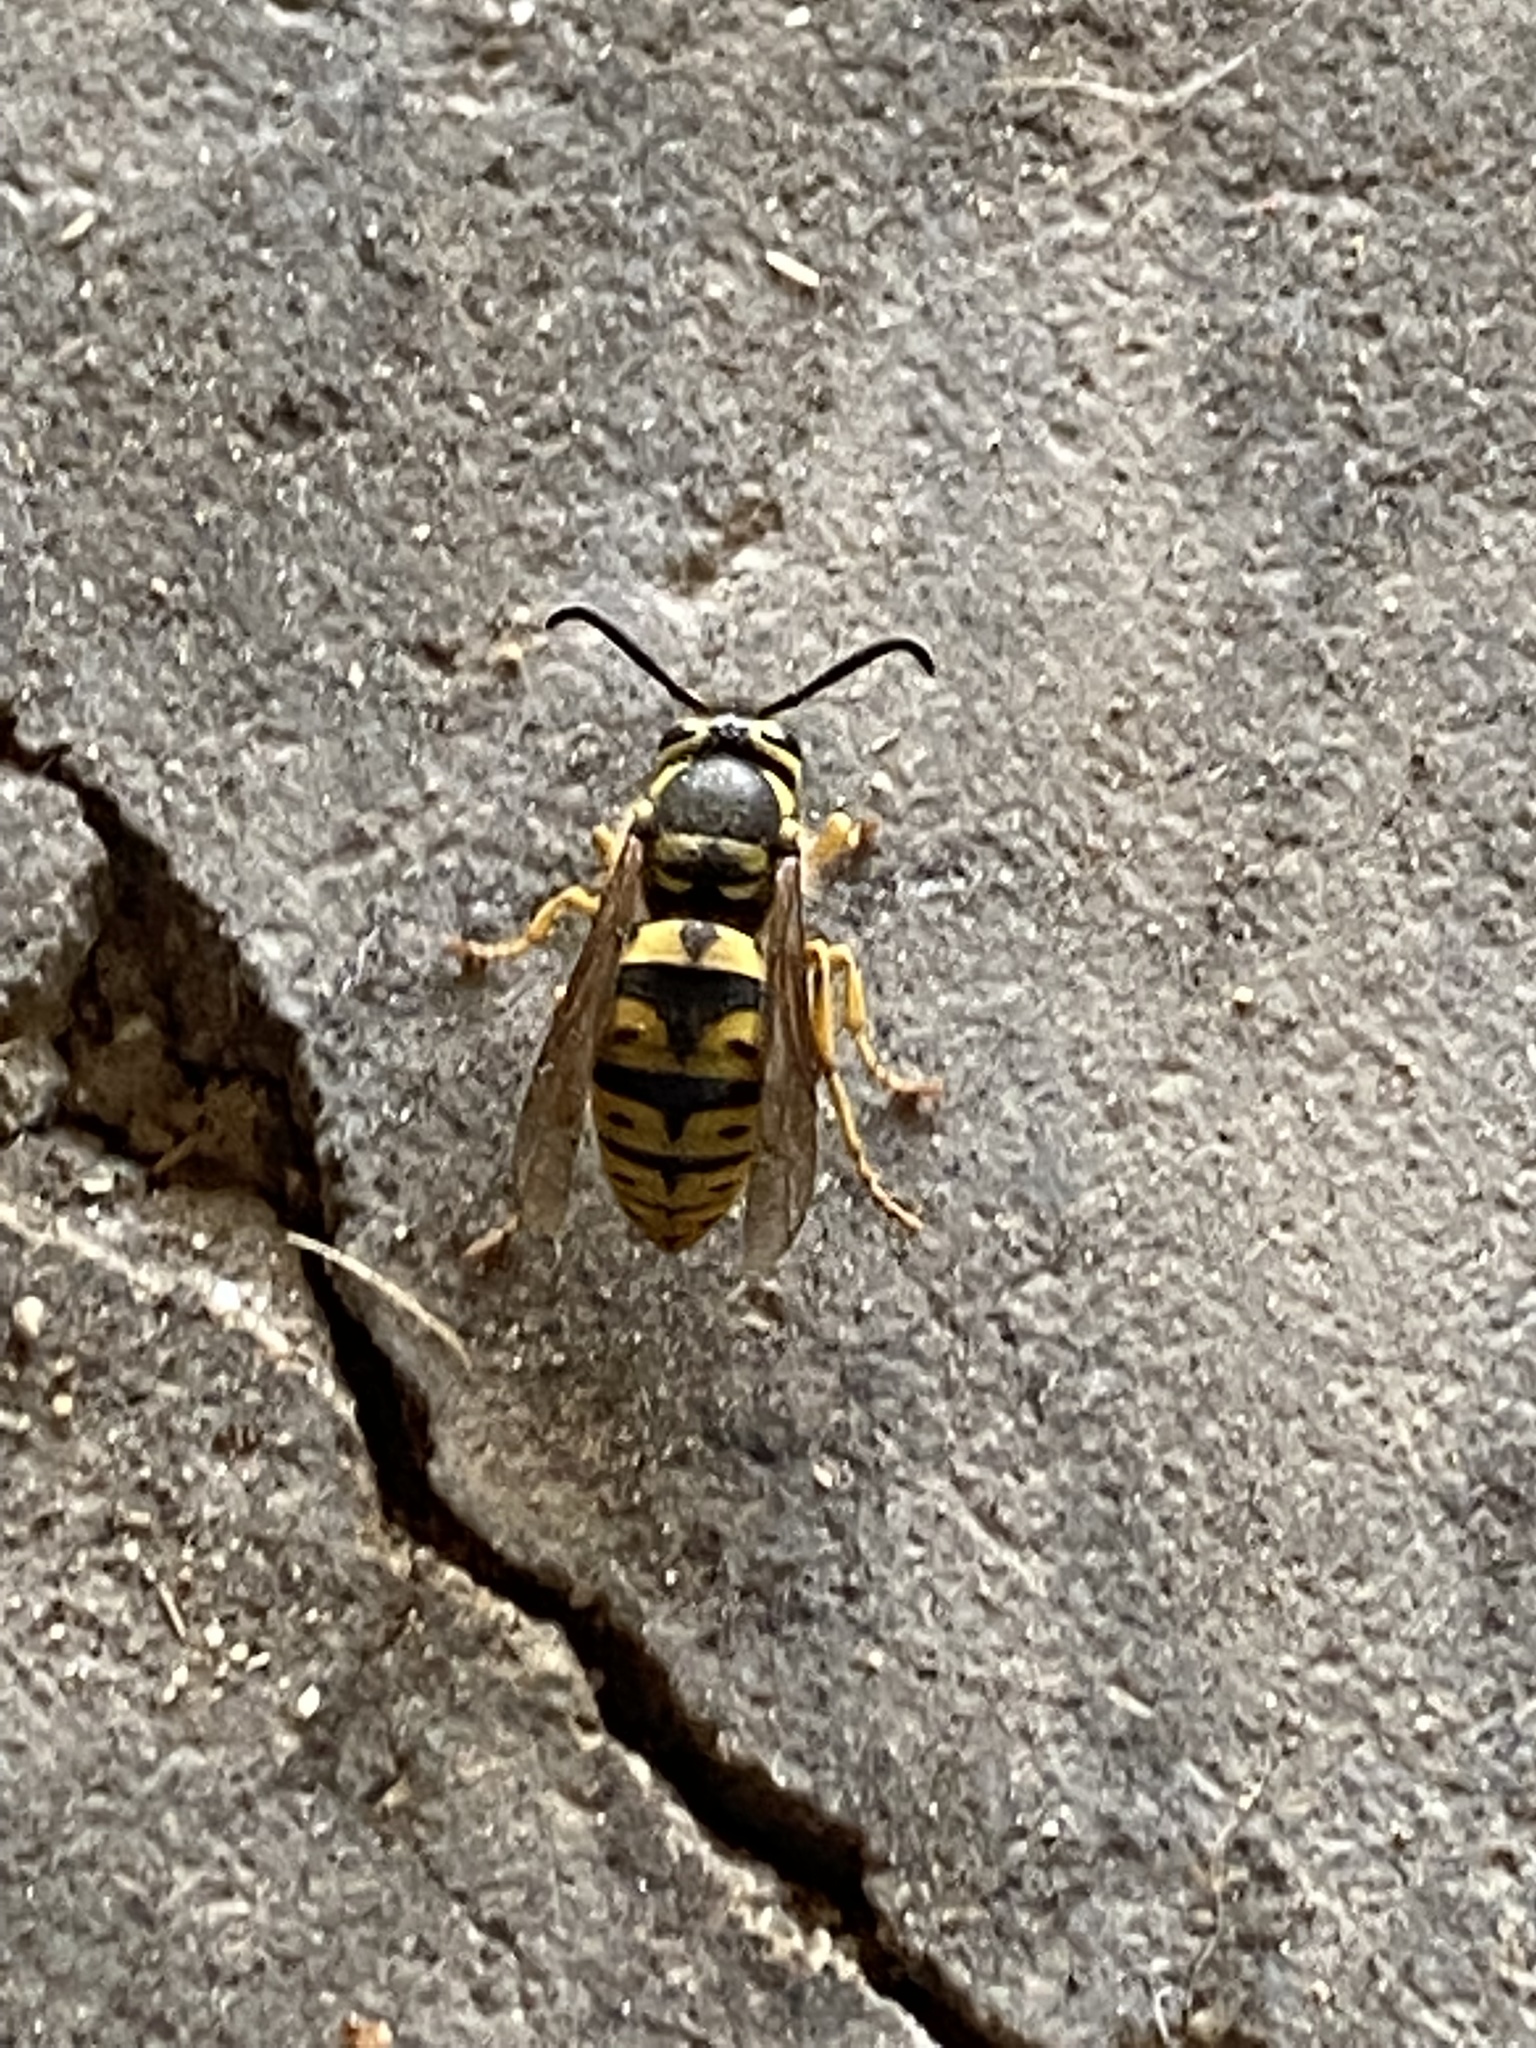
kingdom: Animalia
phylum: Arthropoda
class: Insecta
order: Hymenoptera
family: Vespidae
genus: Vespula
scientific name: Vespula pensylvanica
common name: Western yellowjacket
